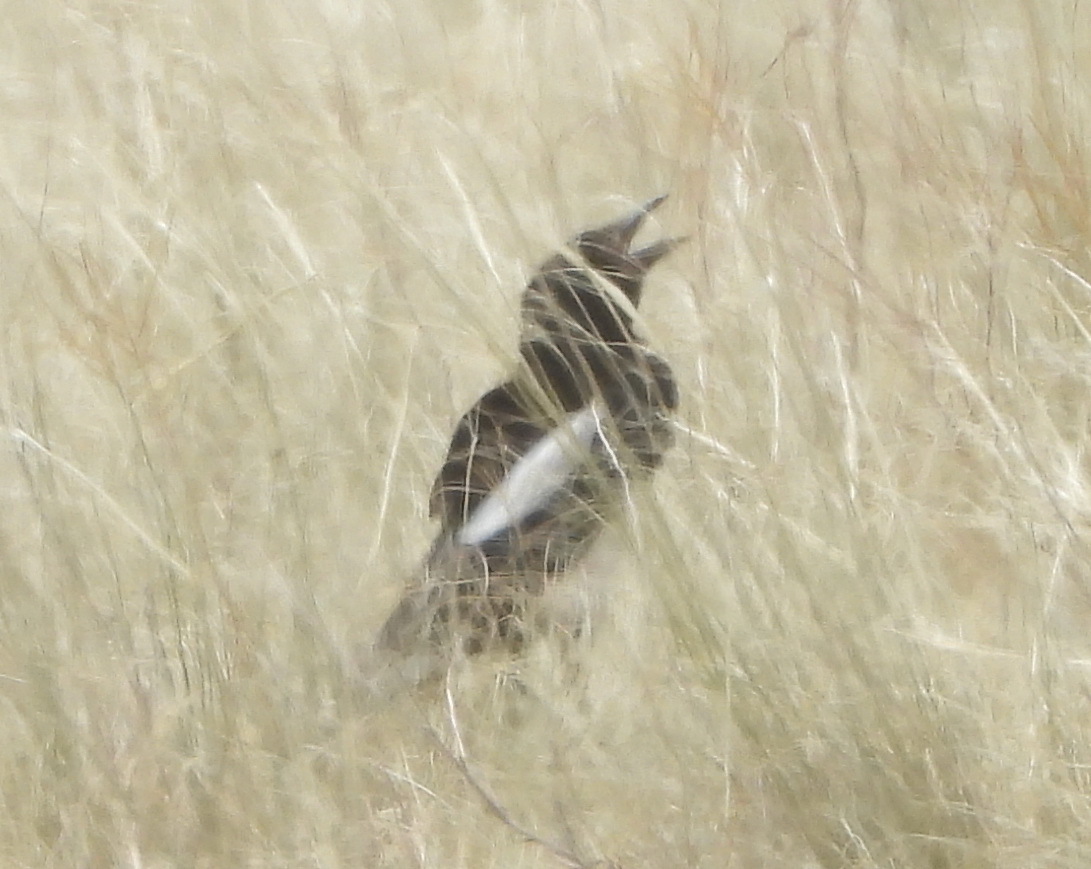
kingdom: Animalia
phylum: Chordata
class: Aves
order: Passeriformes
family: Corvidae
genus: Pica
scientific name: Pica pica
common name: Eurasian magpie
